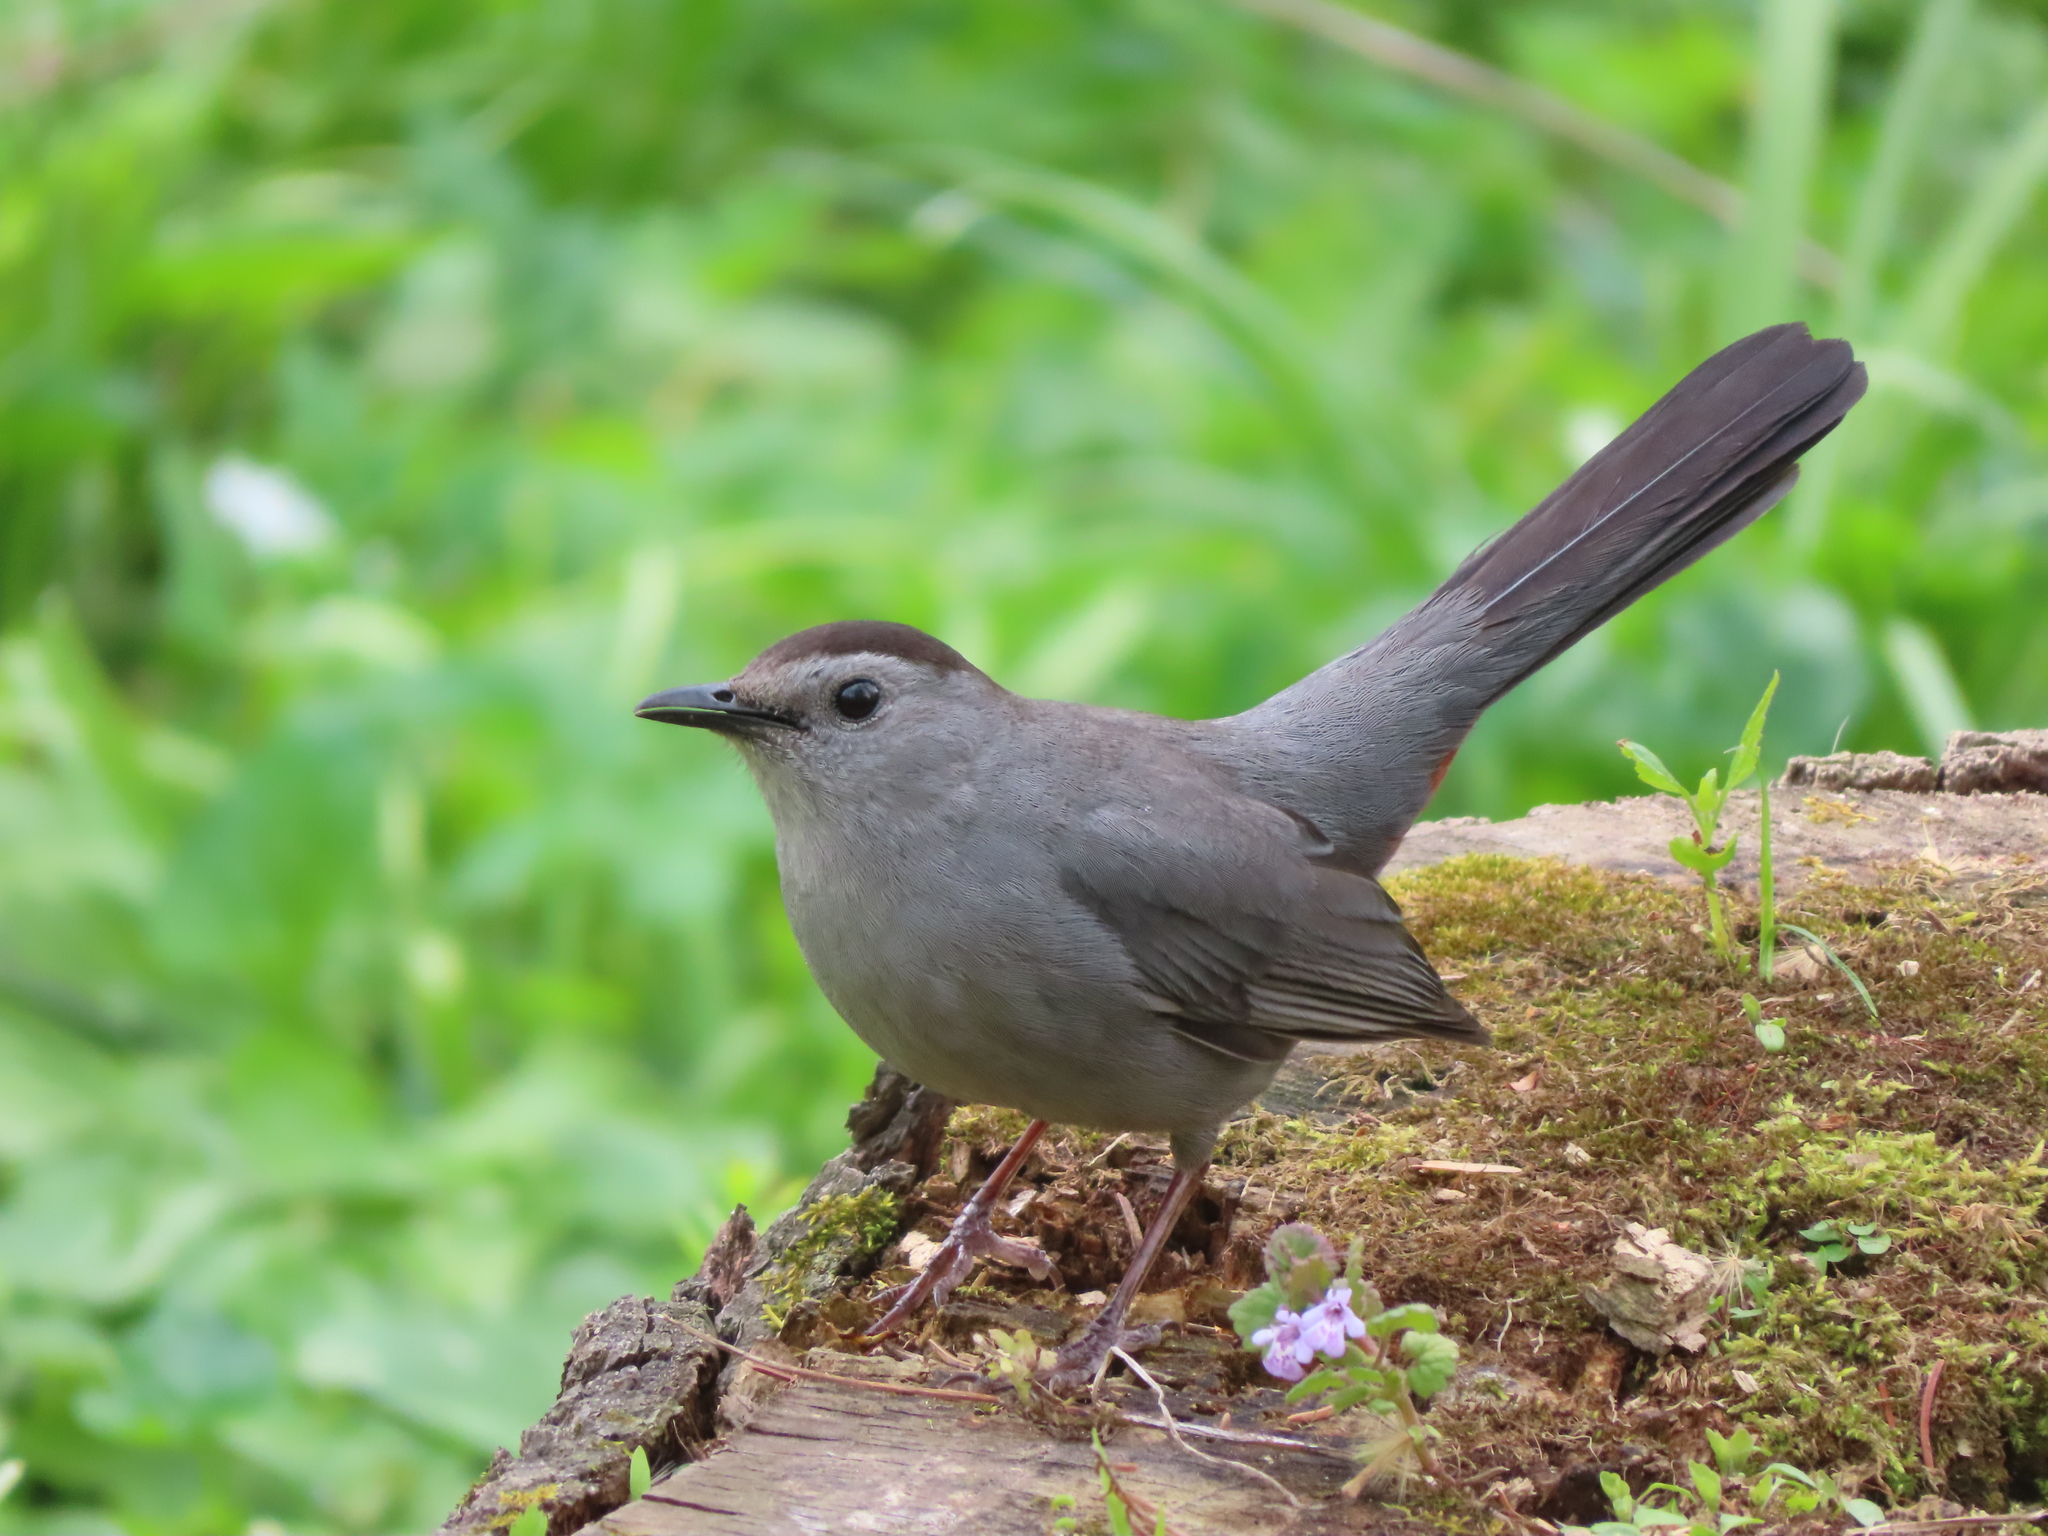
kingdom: Animalia
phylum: Chordata
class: Aves
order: Passeriformes
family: Mimidae
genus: Dumetella
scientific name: Dumetella carolinensis
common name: Gray catbird
